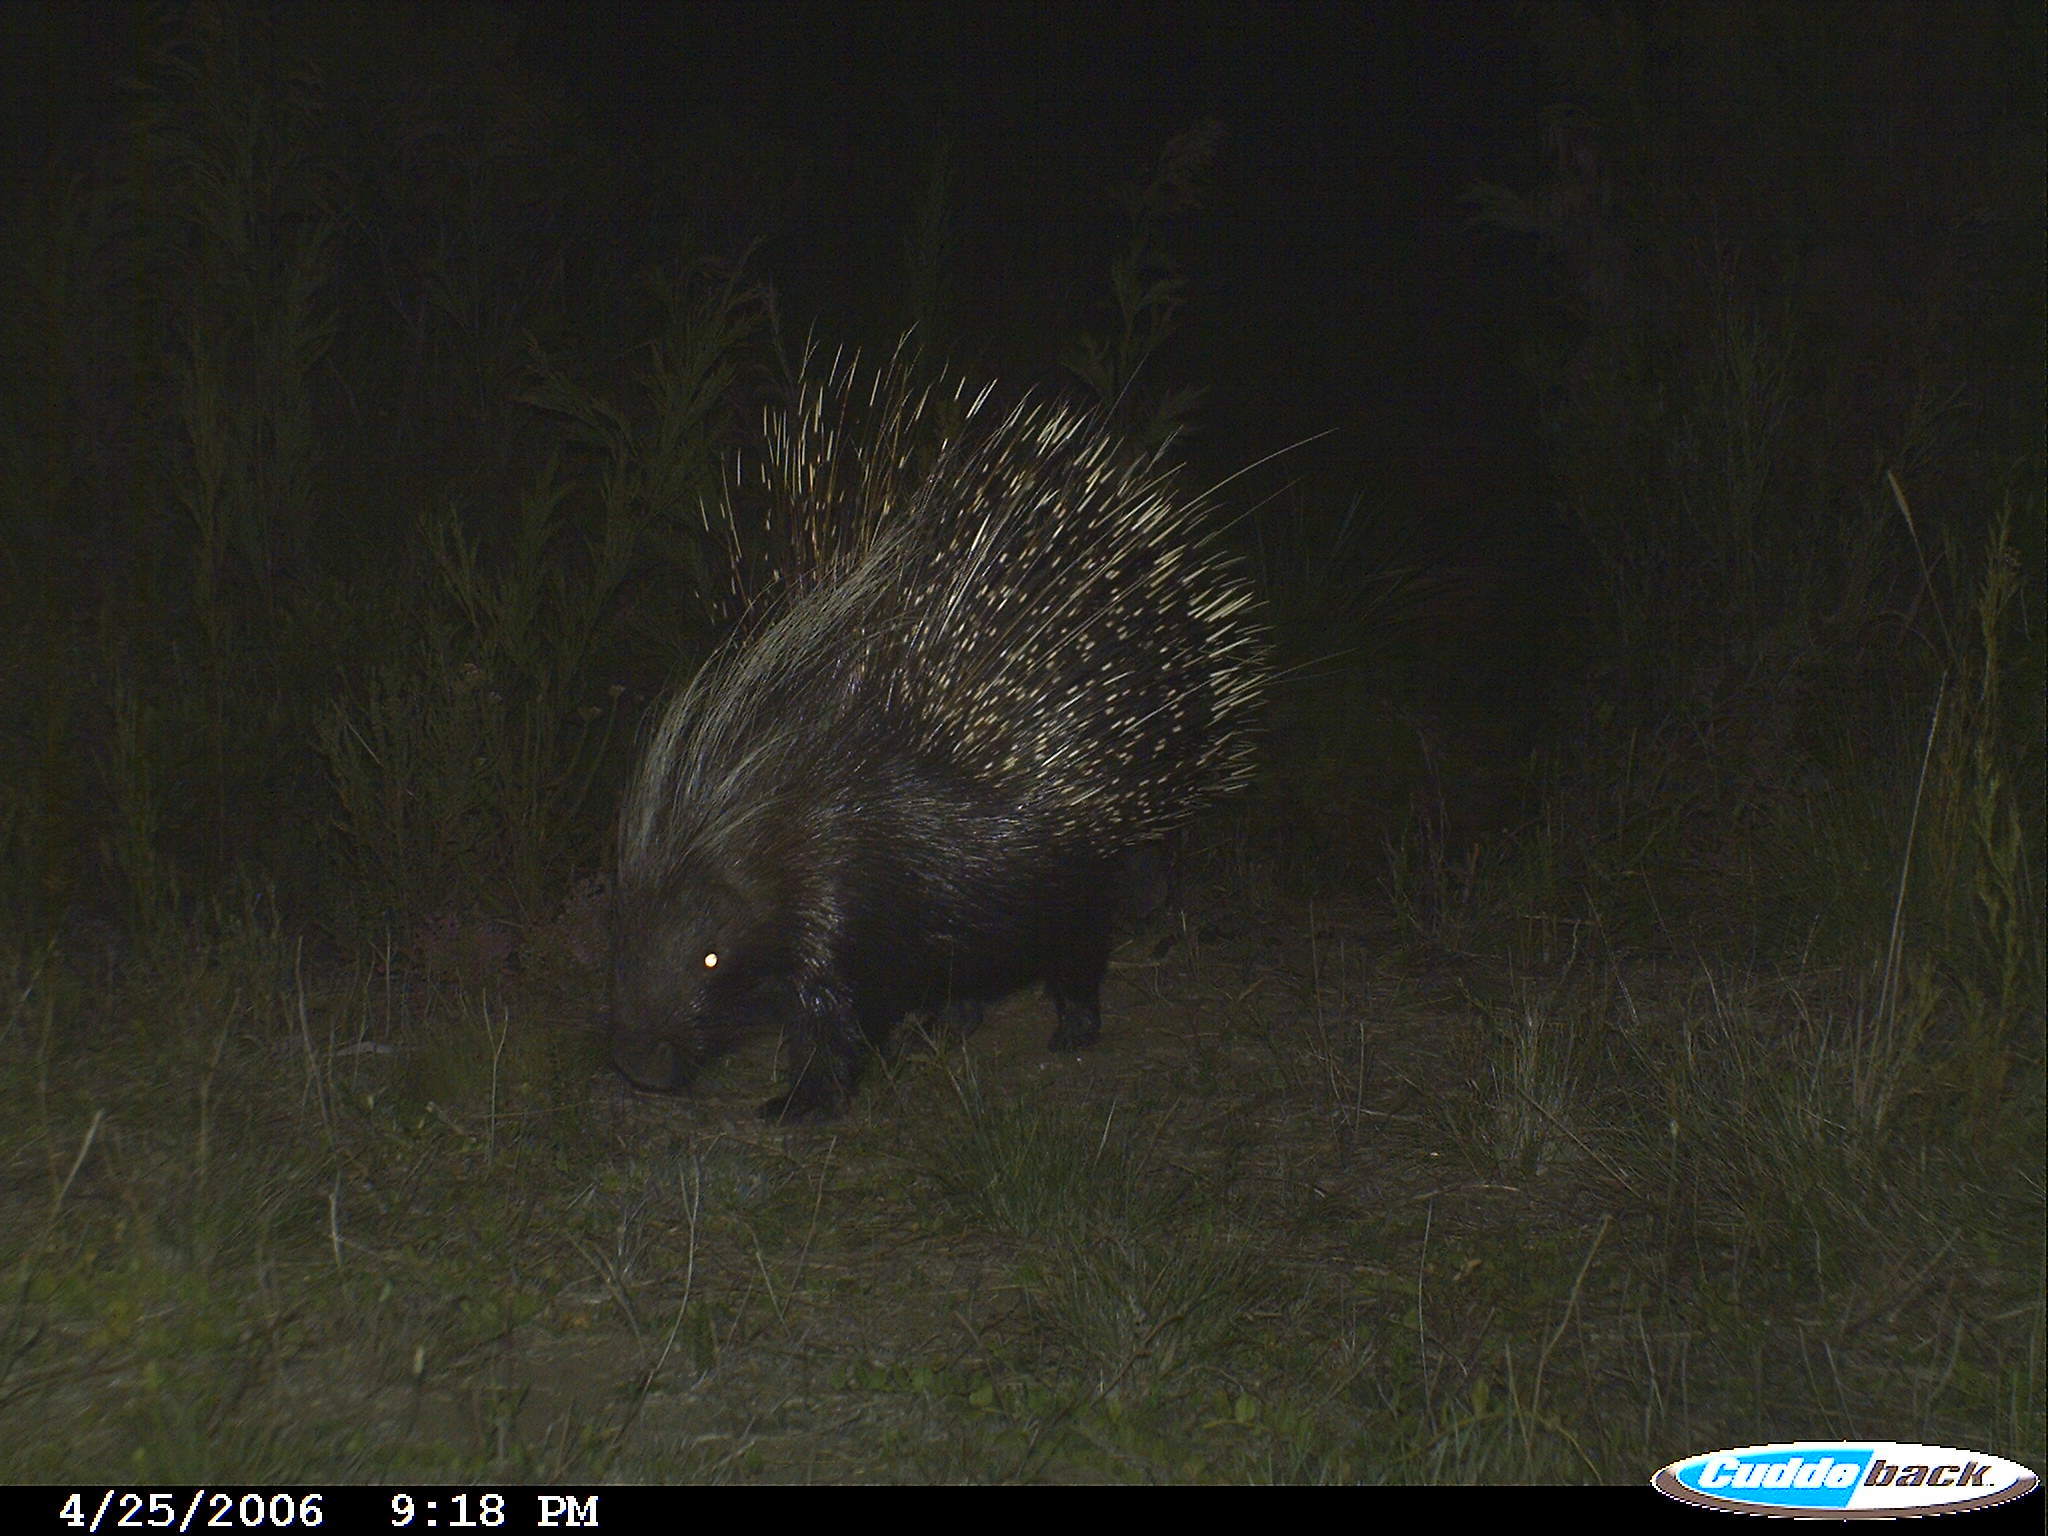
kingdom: Animalia
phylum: Chordata
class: Mammalia
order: Rodentia
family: Hystricidae
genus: Hystrix
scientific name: Hystrix africaeaustralis
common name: Cape porcupine
